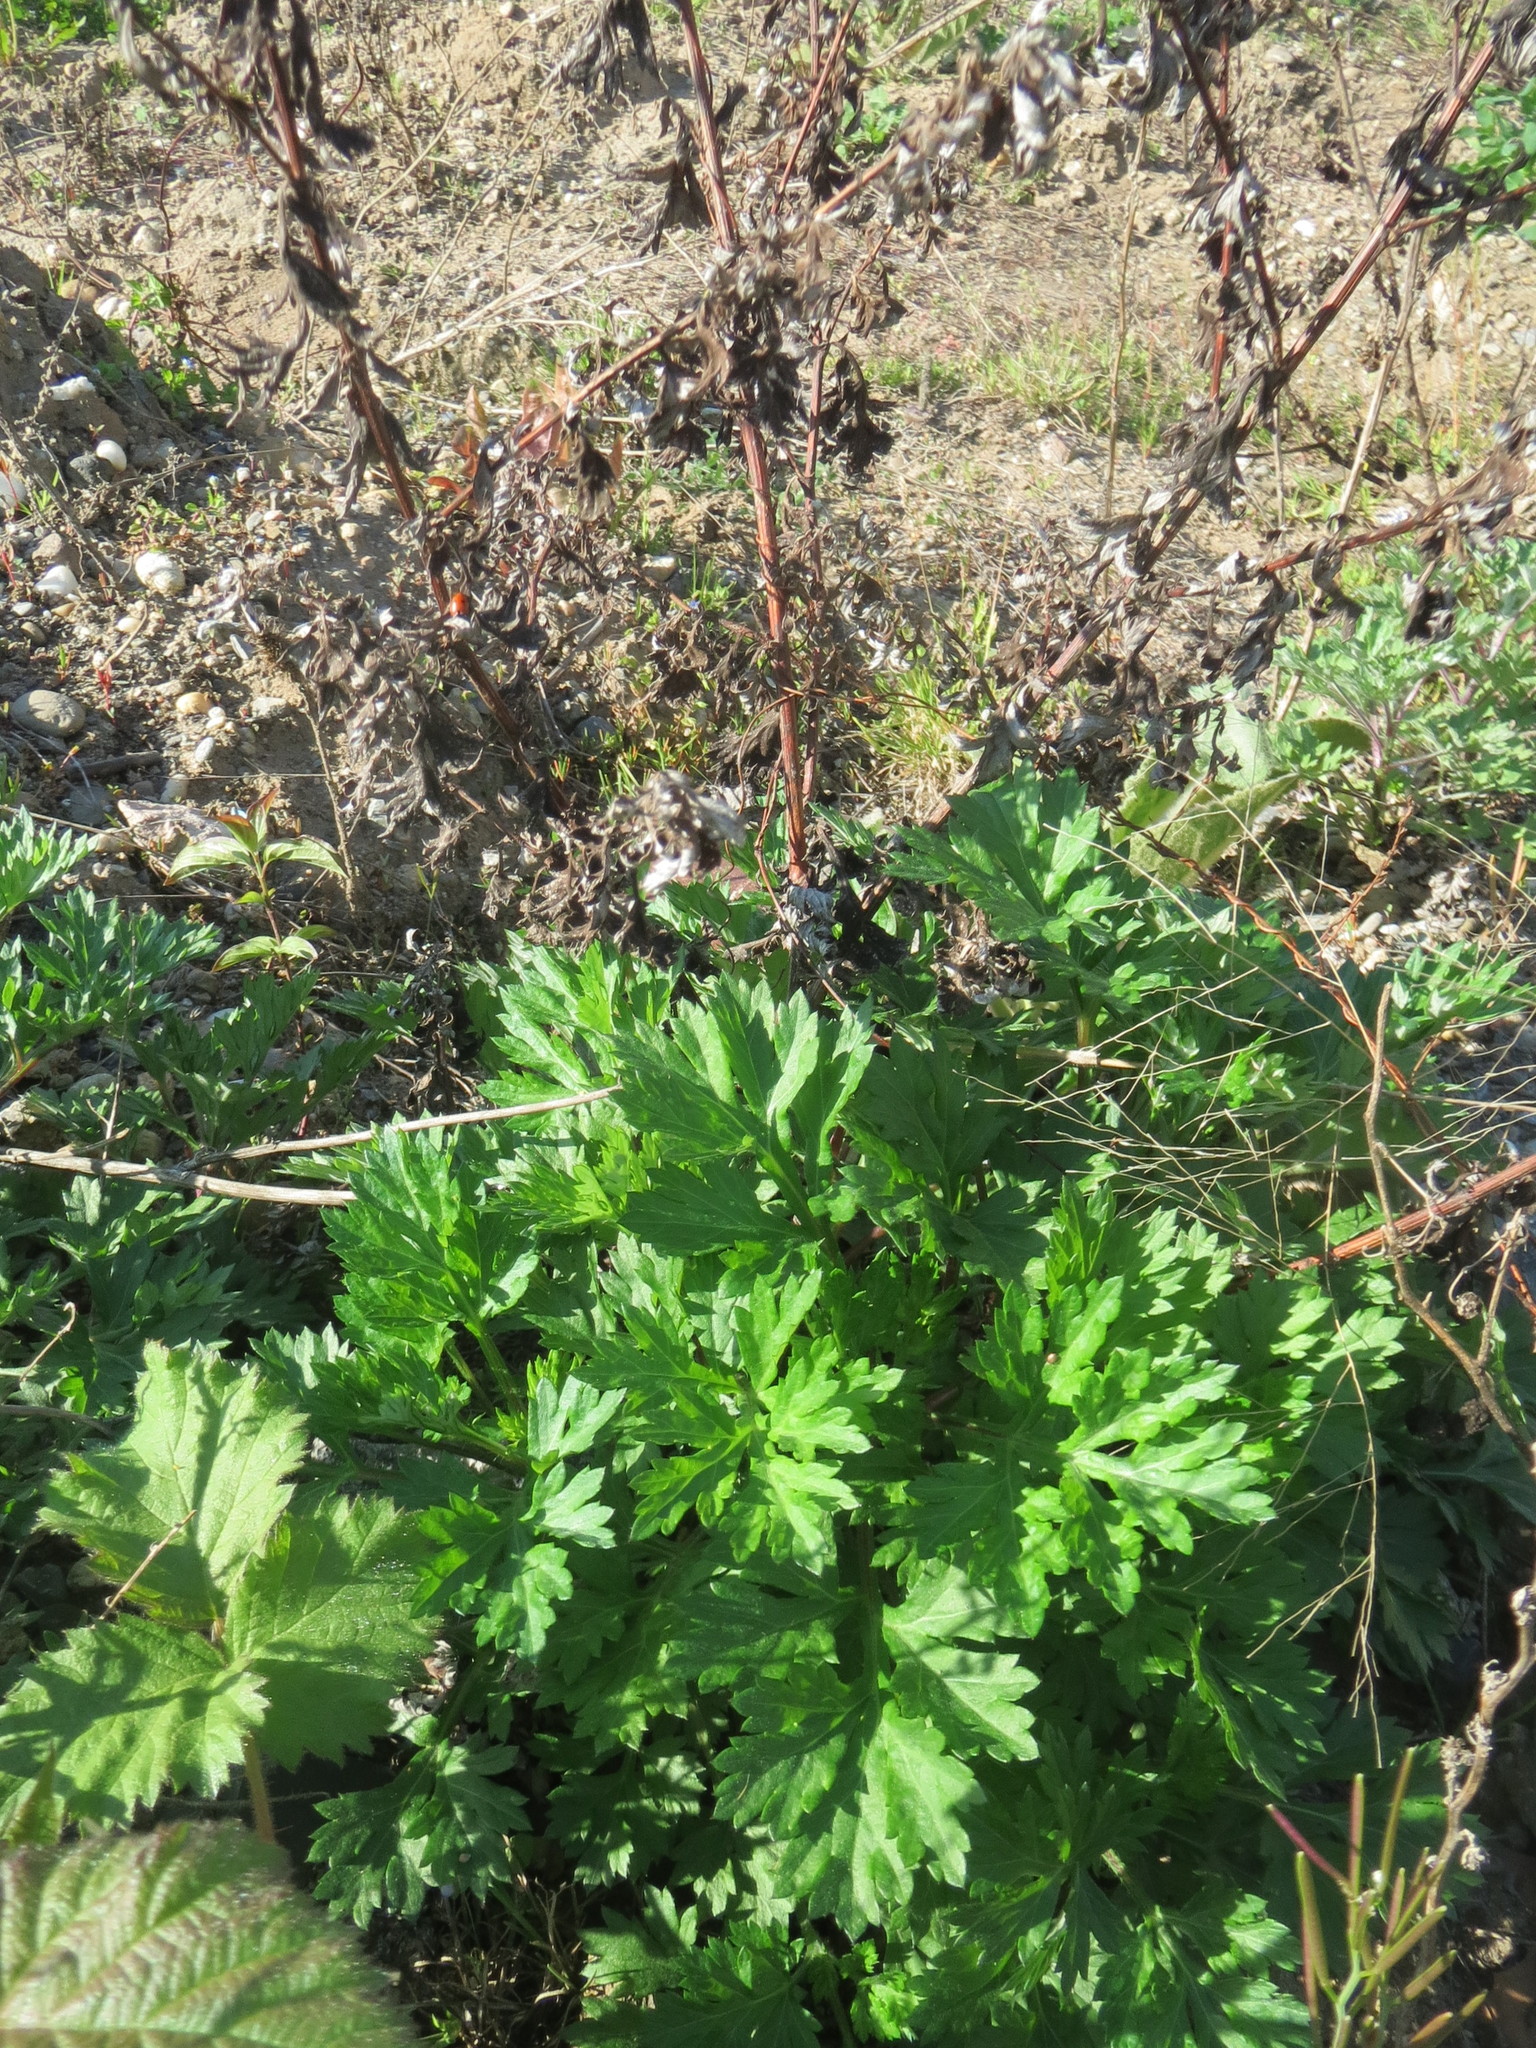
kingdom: Plantae
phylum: Tracheophyta
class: Magnoliopsida
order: Asterales
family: Asteraceae
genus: Artemisia
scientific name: Artemisia vulgaris
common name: Mugwort
